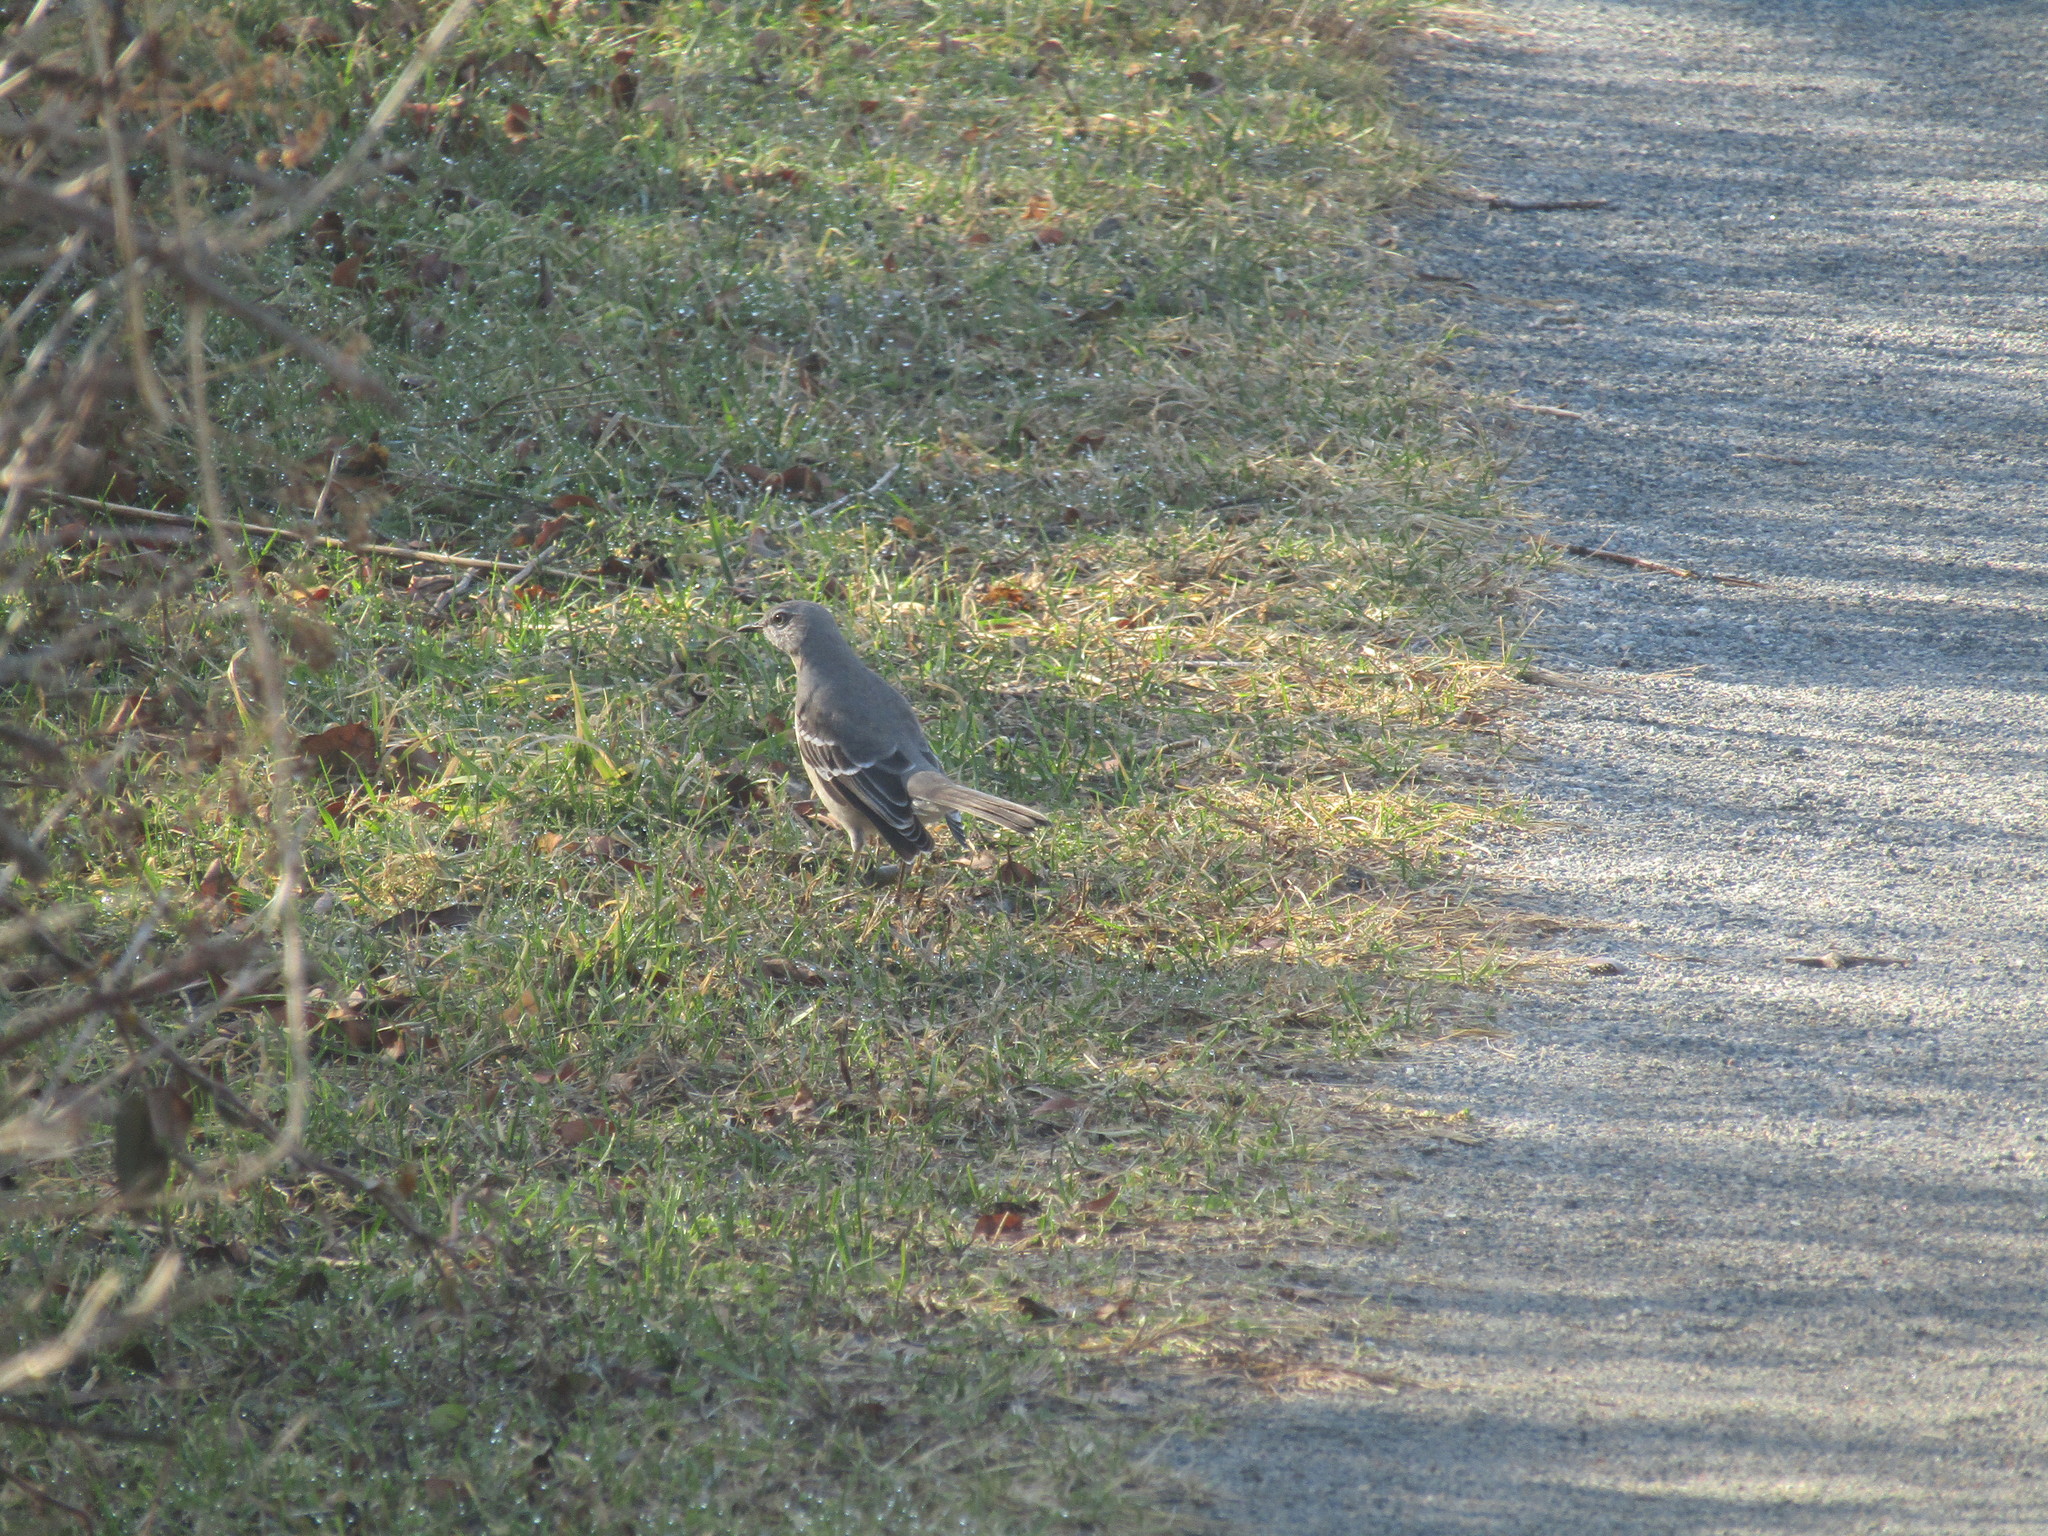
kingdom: Animalia
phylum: Chordata
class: Aves
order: Passeriformes
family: Mimidae
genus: Mimus
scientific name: Mimus polyglottos
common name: Northern mockingbird
